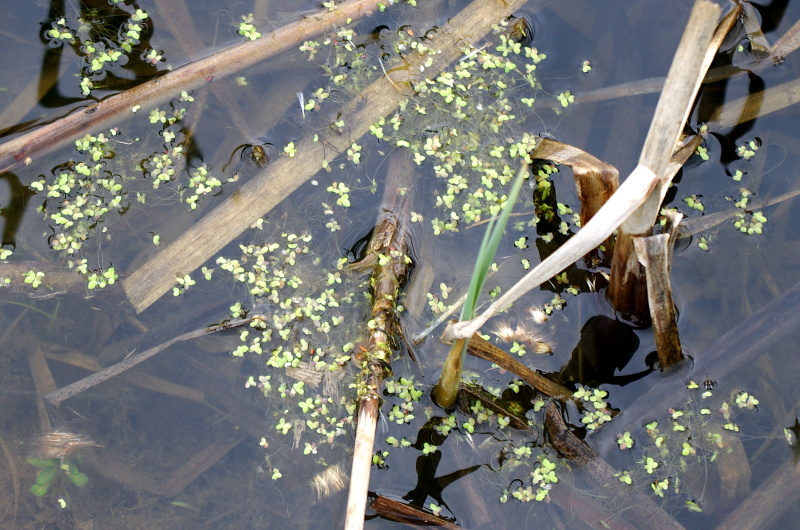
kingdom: Plantae
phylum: Tracheophyta
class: Liliopsida
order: Alismatales
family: Araceae
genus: Lemna
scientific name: Lemna minor
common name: Common duckweed
